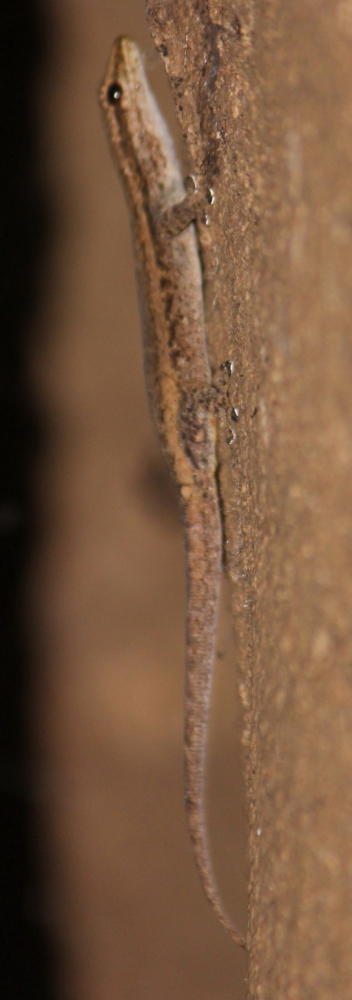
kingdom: Animalia
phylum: Chordata
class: Squamata
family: Gekkonidae
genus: Lygodactylus
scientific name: Lygodactylus capensis
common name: Cape dwarf gecko
